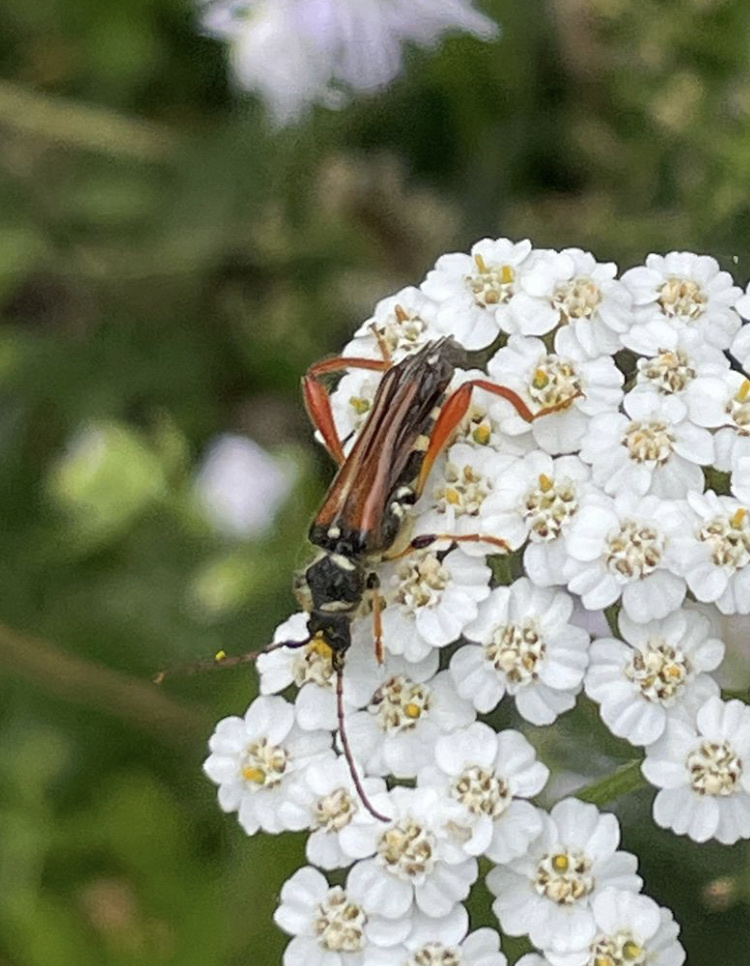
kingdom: Animalia
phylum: Arthropoda
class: Insecta
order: Coleoptera
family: Cerambycidae
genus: Stenopterus
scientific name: Stenopterus rufus
